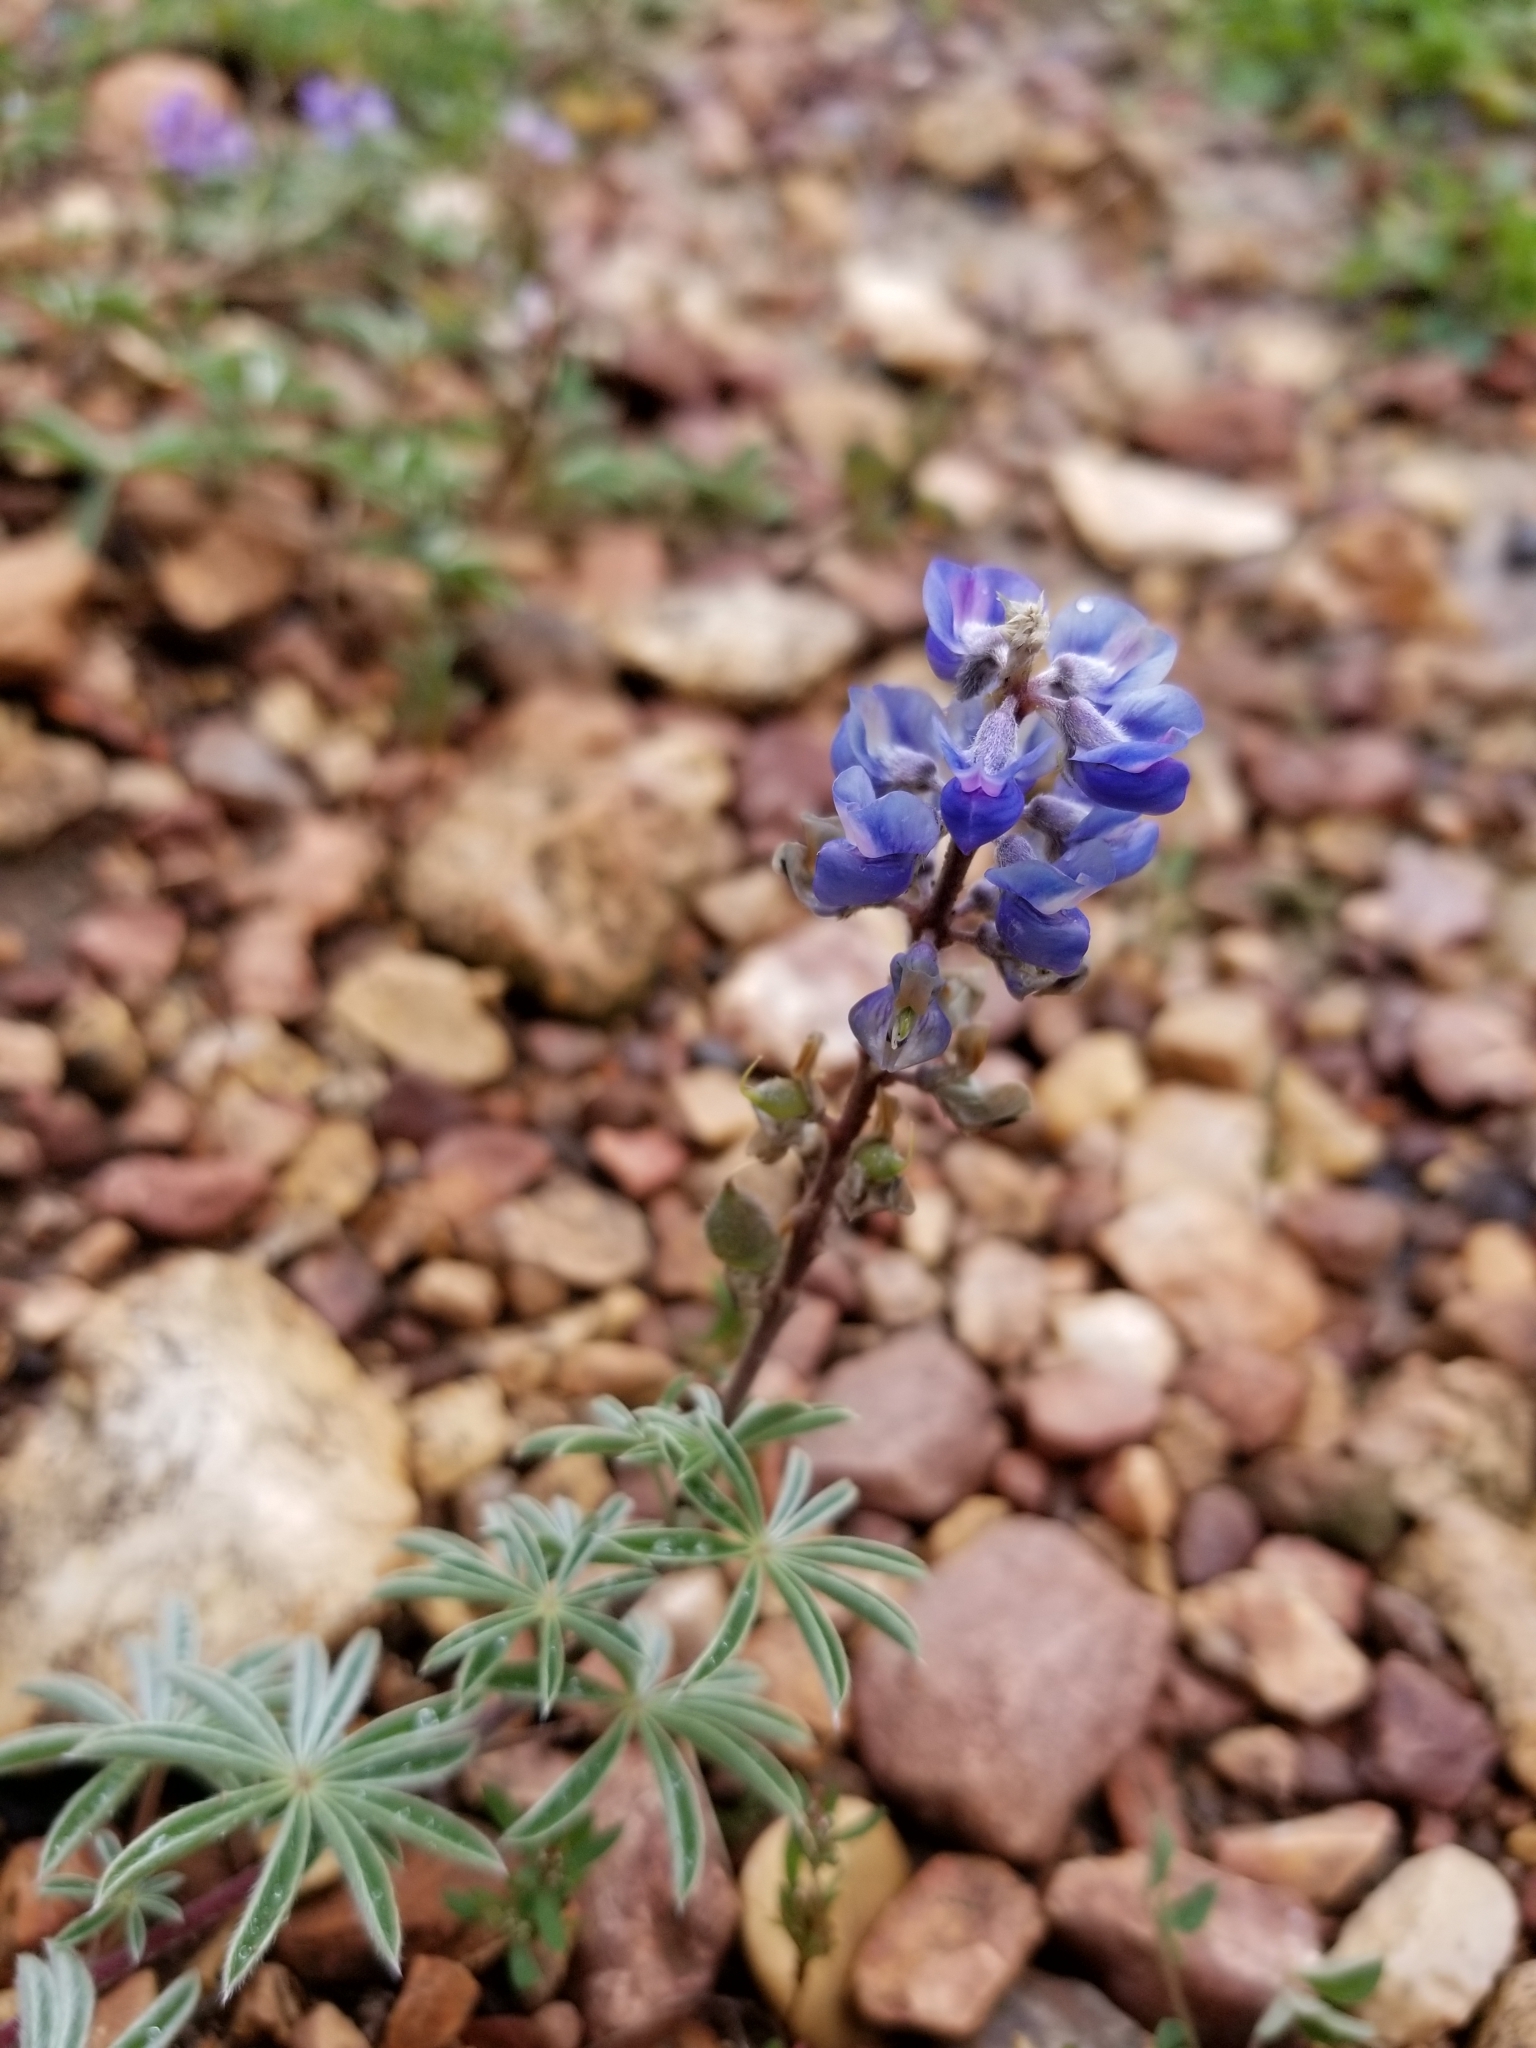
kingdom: Plantae
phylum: Tracheophyta
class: Magnoliopsida
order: Fabales
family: Fabaceae
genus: Lupinus
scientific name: Lupinus argenteus
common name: Silvery lupine
